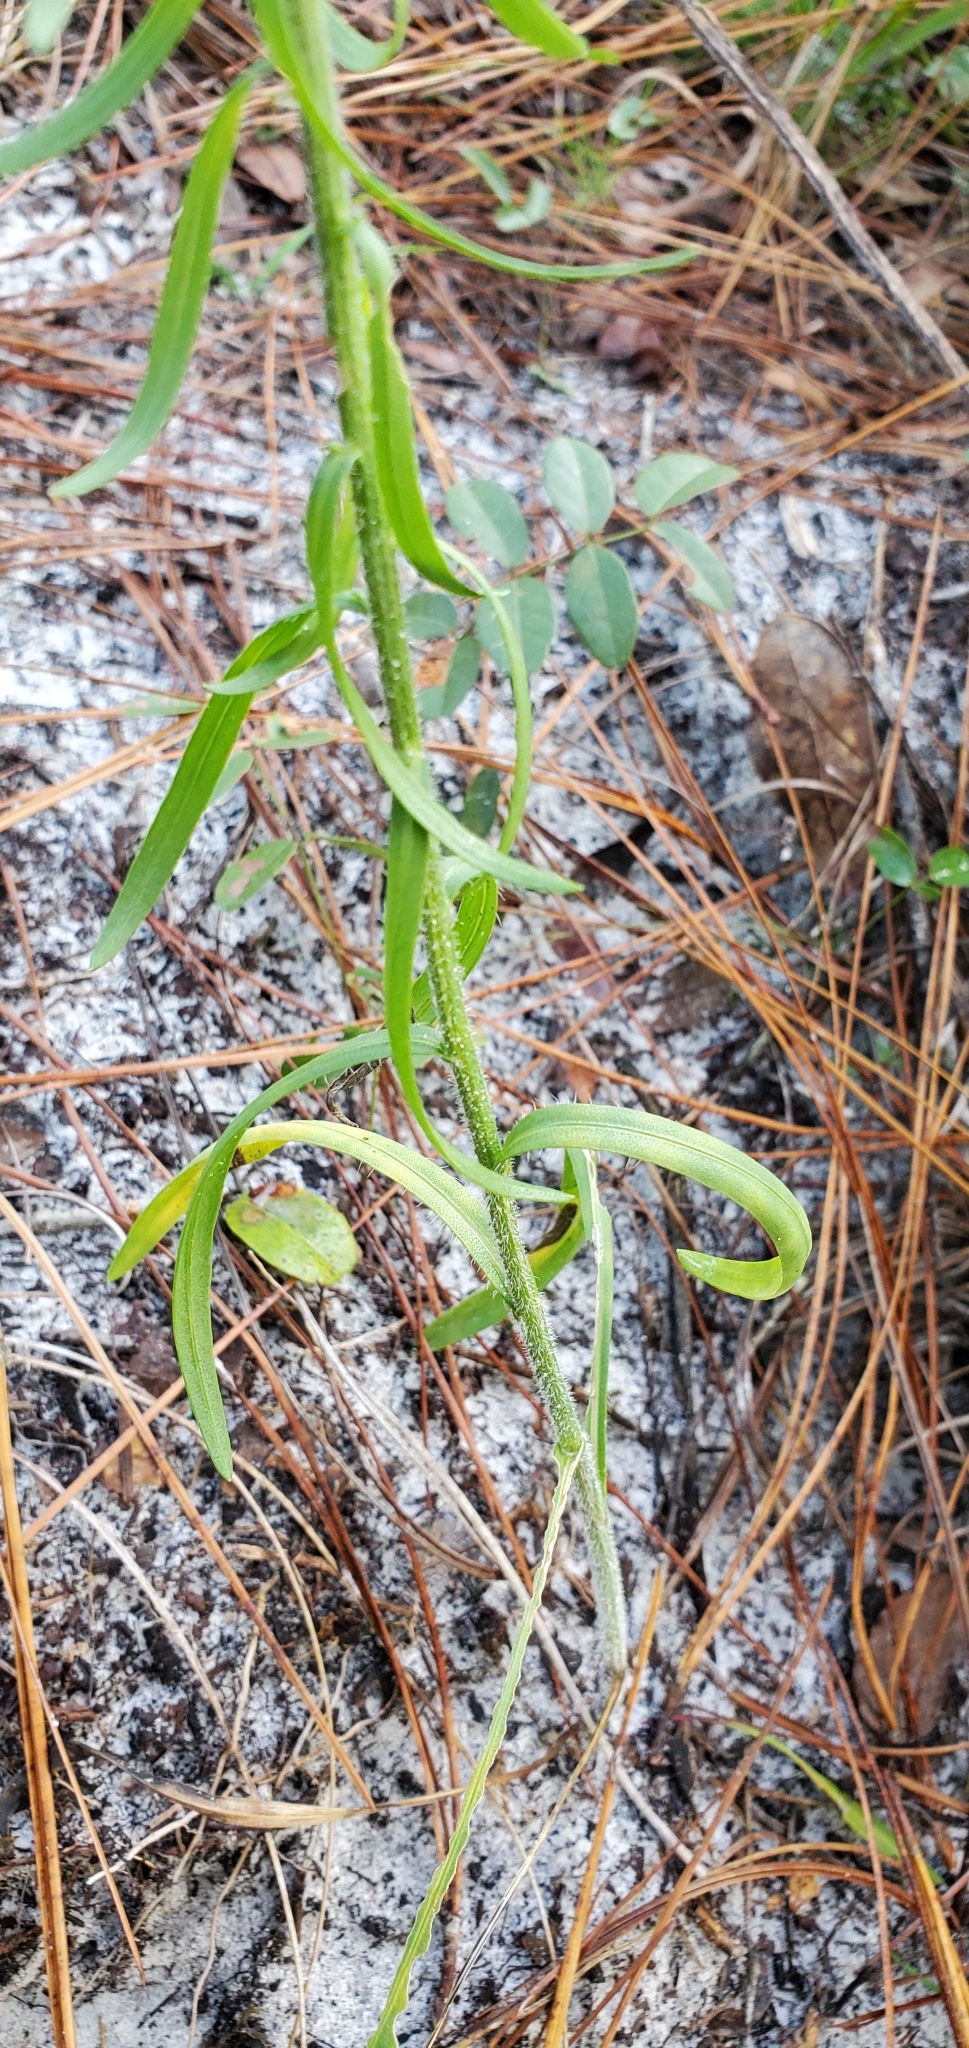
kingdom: Plantae
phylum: Tracheophyta
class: Magnoliopsida
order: Asterales
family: Asteraceae
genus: Liatris
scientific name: Liatris gracilis
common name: Slender gayfeather
